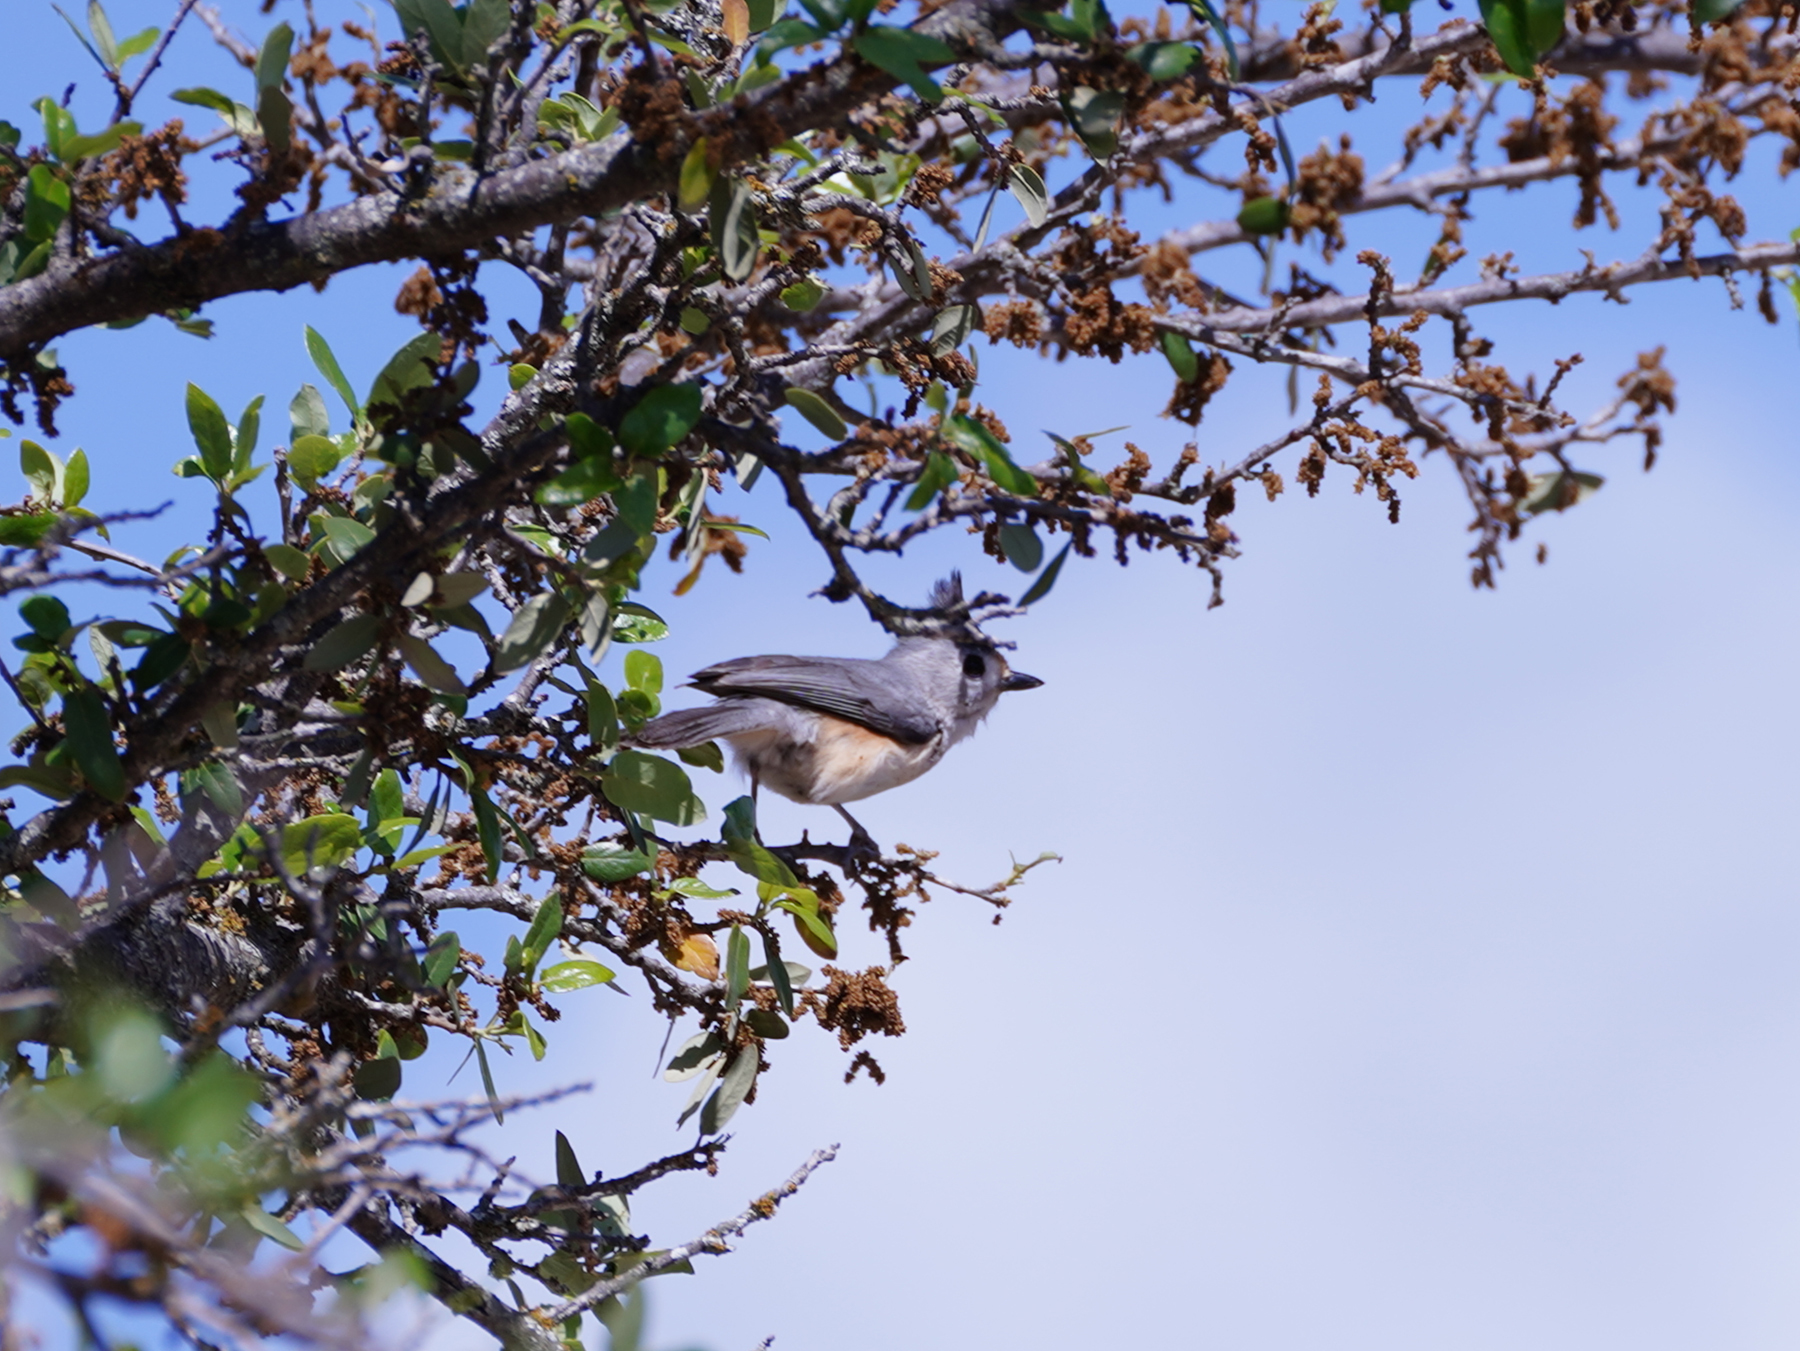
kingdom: Animalia
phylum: Chordata
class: Aves
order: Passeriformes
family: Paridae
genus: Baeolophus
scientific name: Baeolophus atricristatus
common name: Black-crested titmouse
